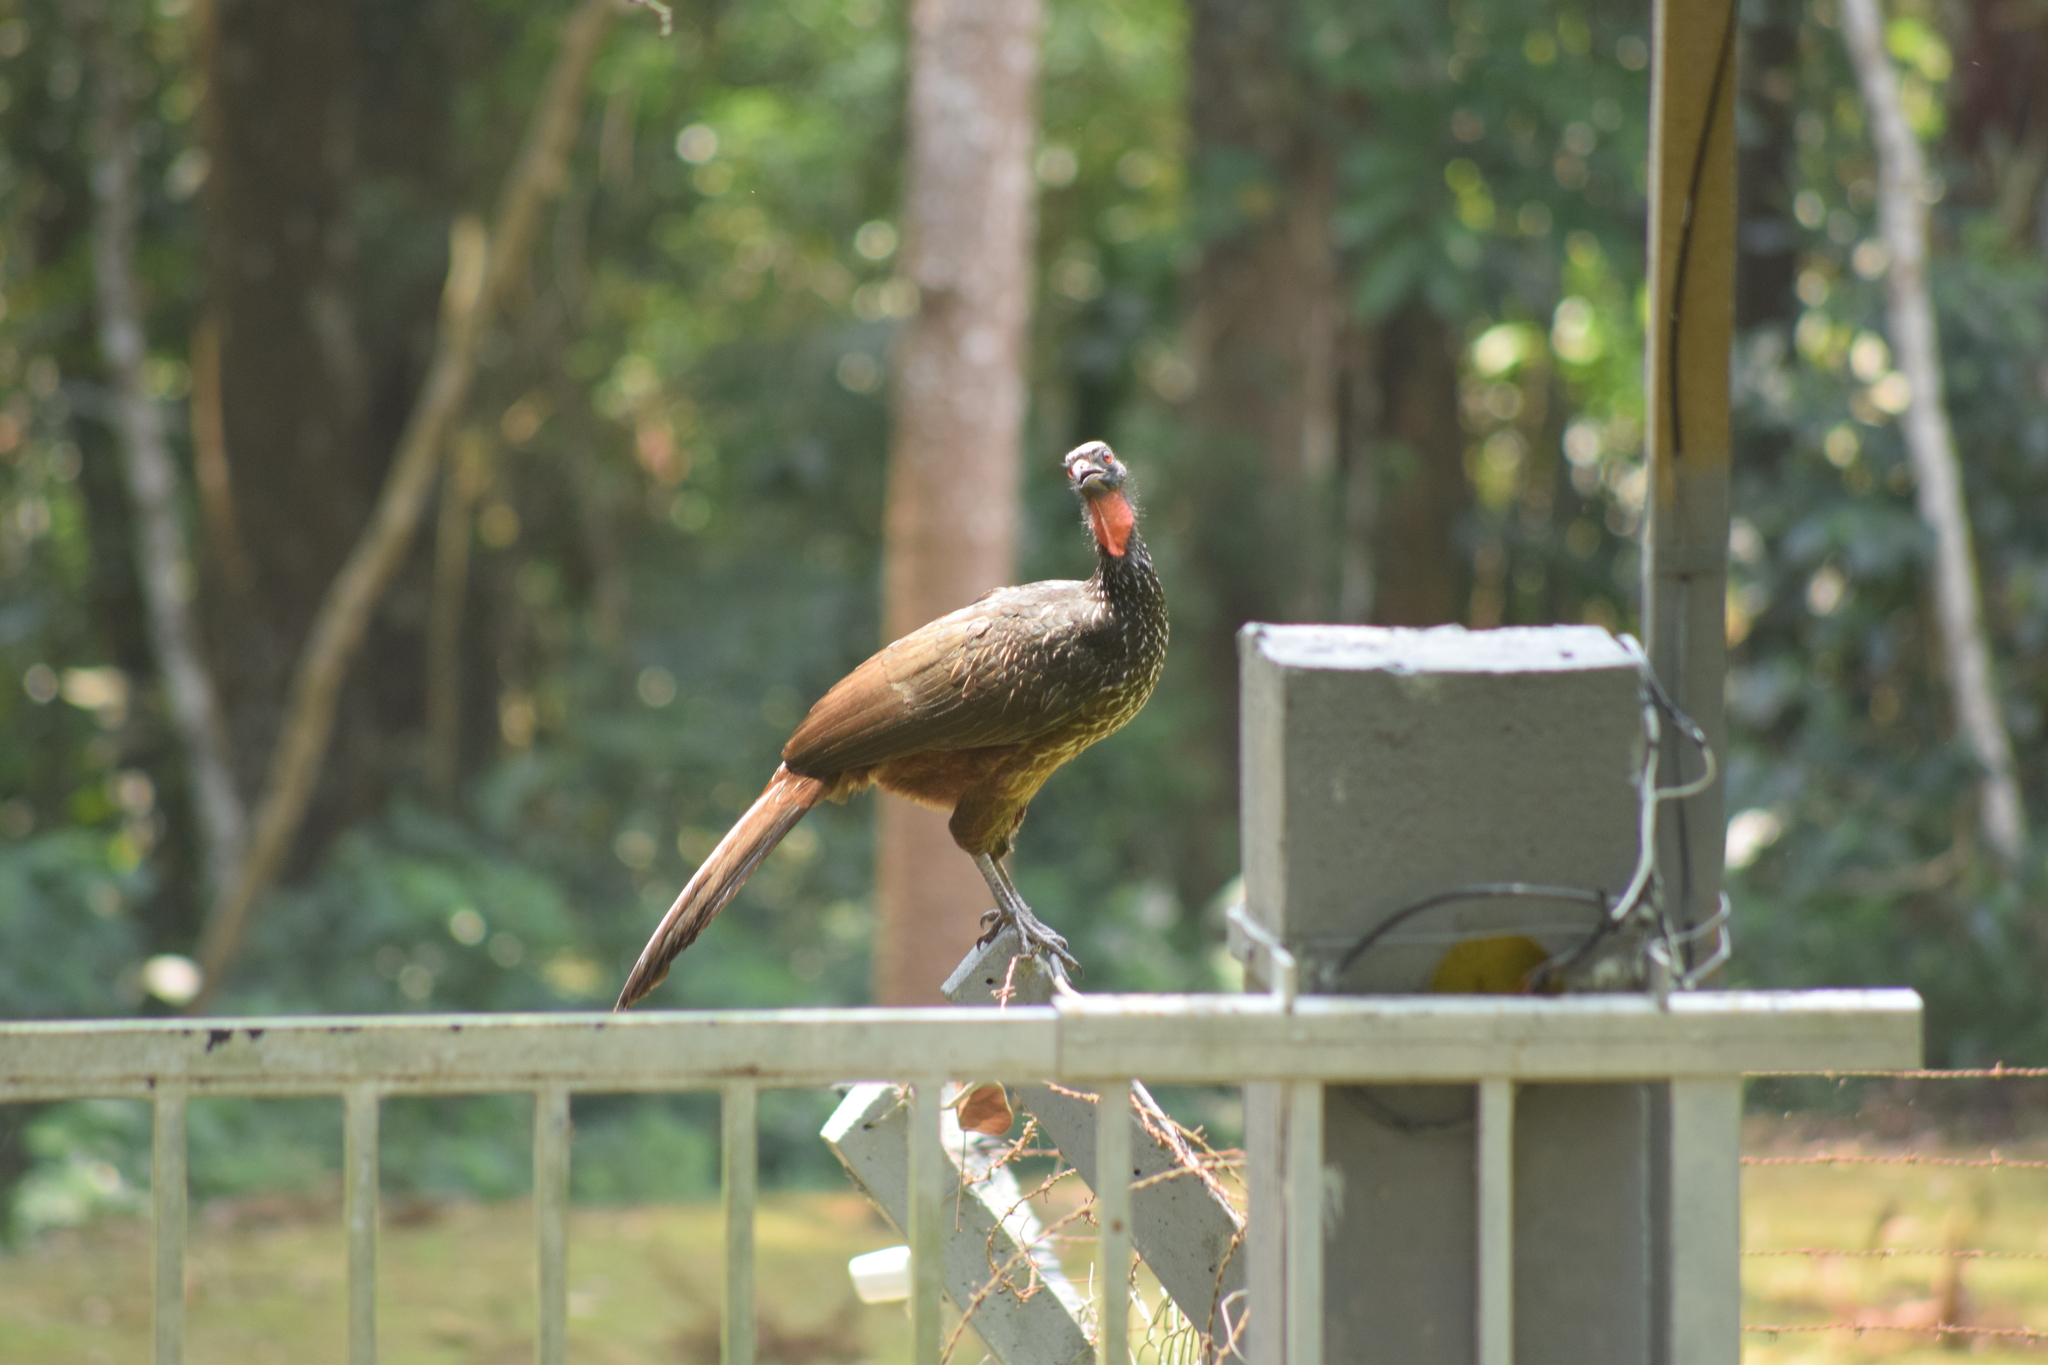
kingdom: Animalia
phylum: Chordata
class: Aves
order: Galliformes
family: Cracidae
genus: Penelope
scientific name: Penelope obscura
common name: Dusky-legged guan
